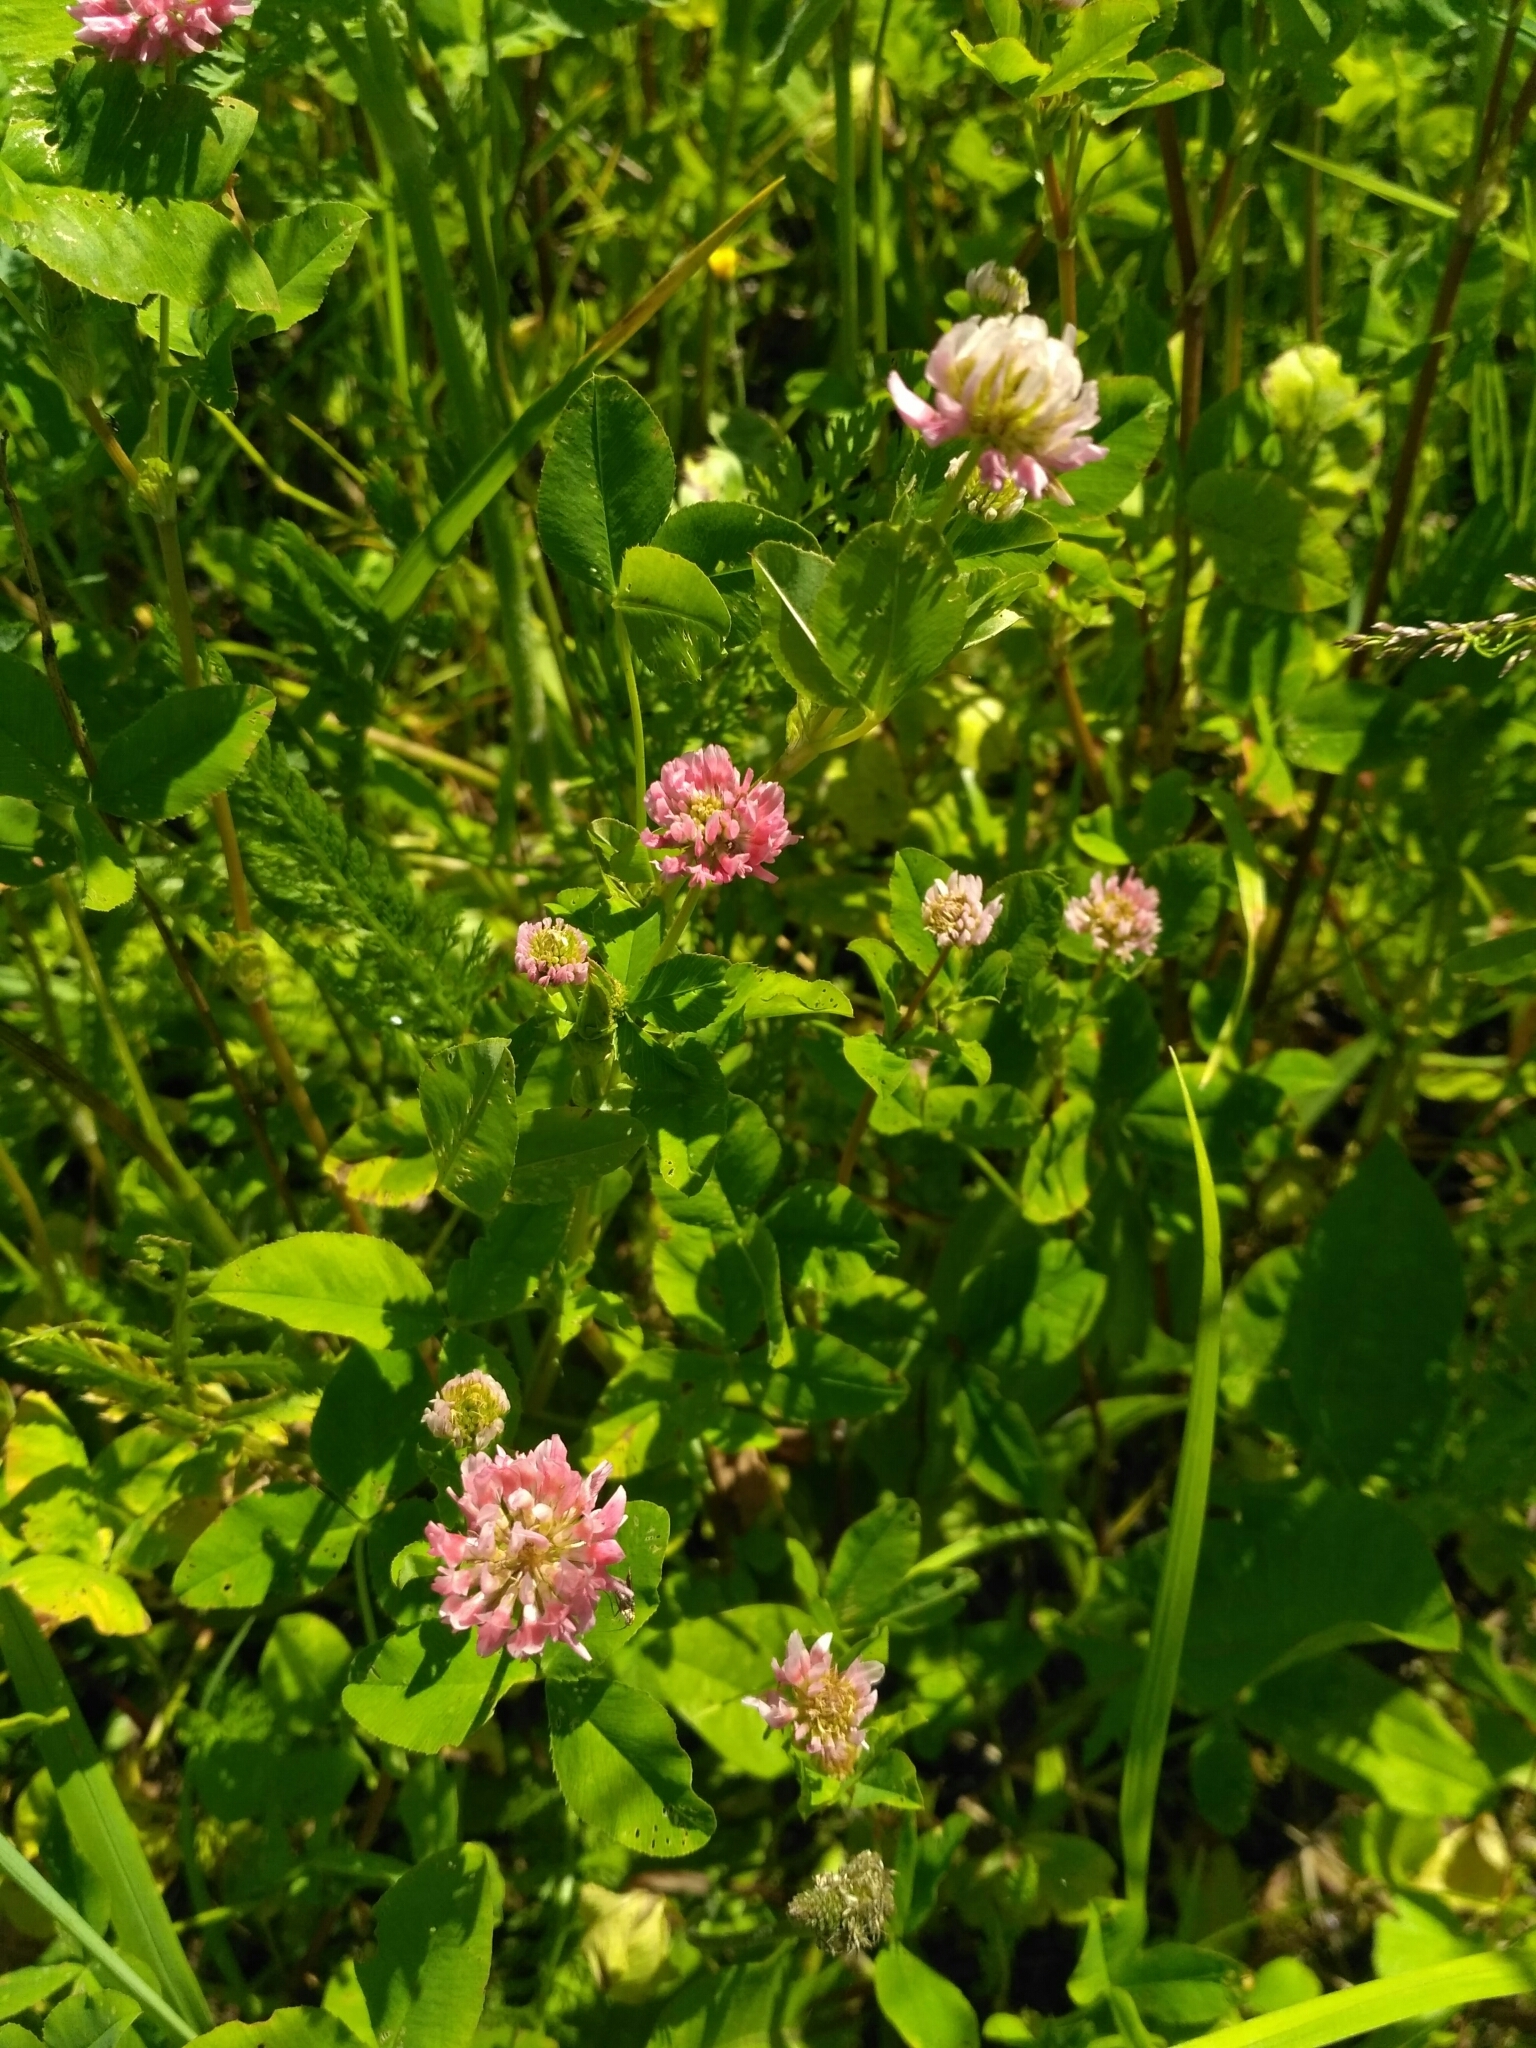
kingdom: Plantae
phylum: Tracheophyta
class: Magnoliopsida
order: Fabales
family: Fabaceae
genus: Trifolium
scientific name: Trifolium hybridum
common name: Alsike clover
